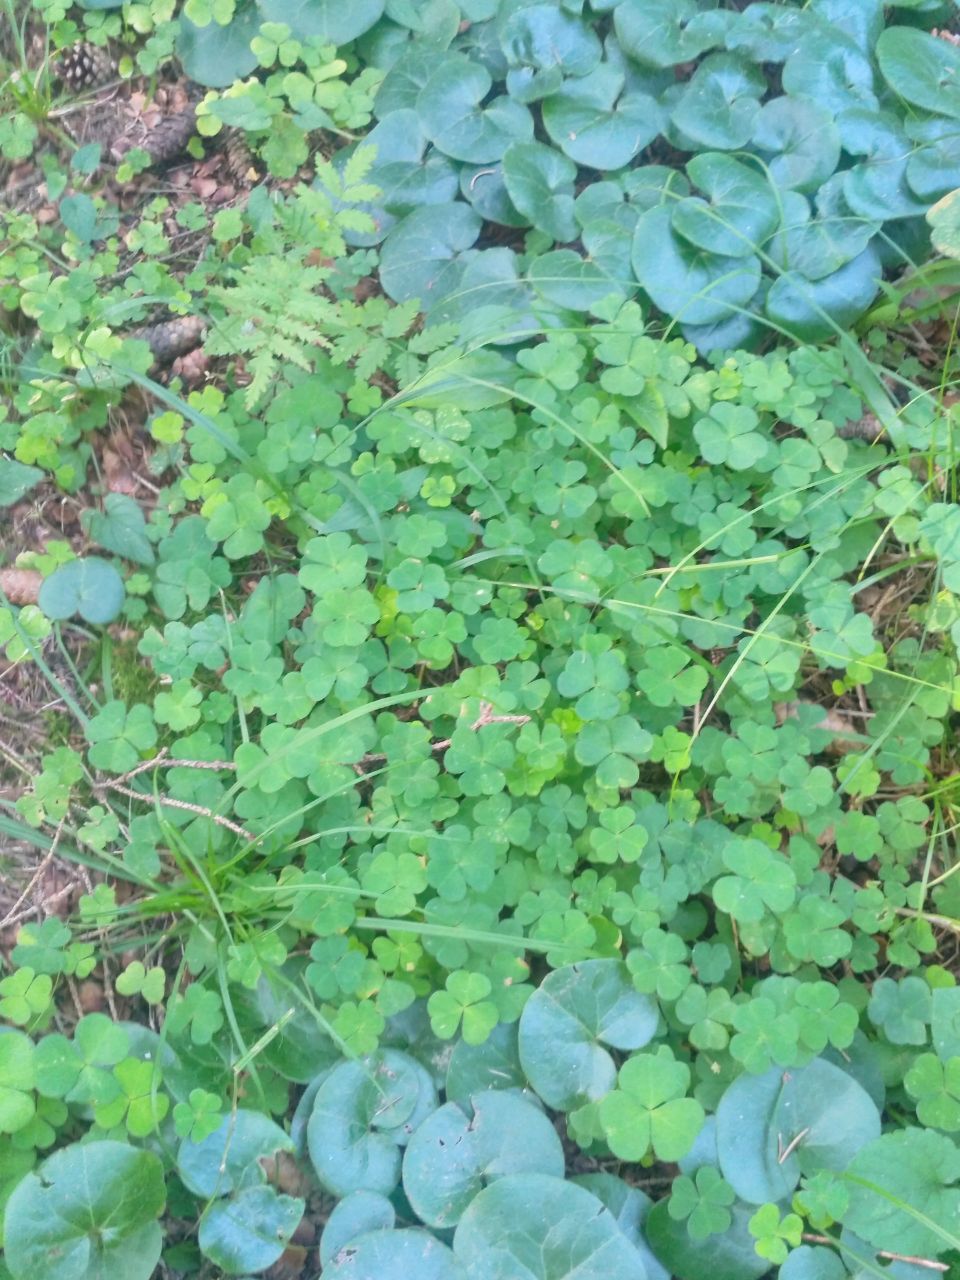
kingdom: Plantae
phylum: Tracheophyta
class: Magnoliopsida
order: Oxalidales
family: Oxalidaceae
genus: Oxalis
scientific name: Oxalis acetosella
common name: Wood-sorrel
